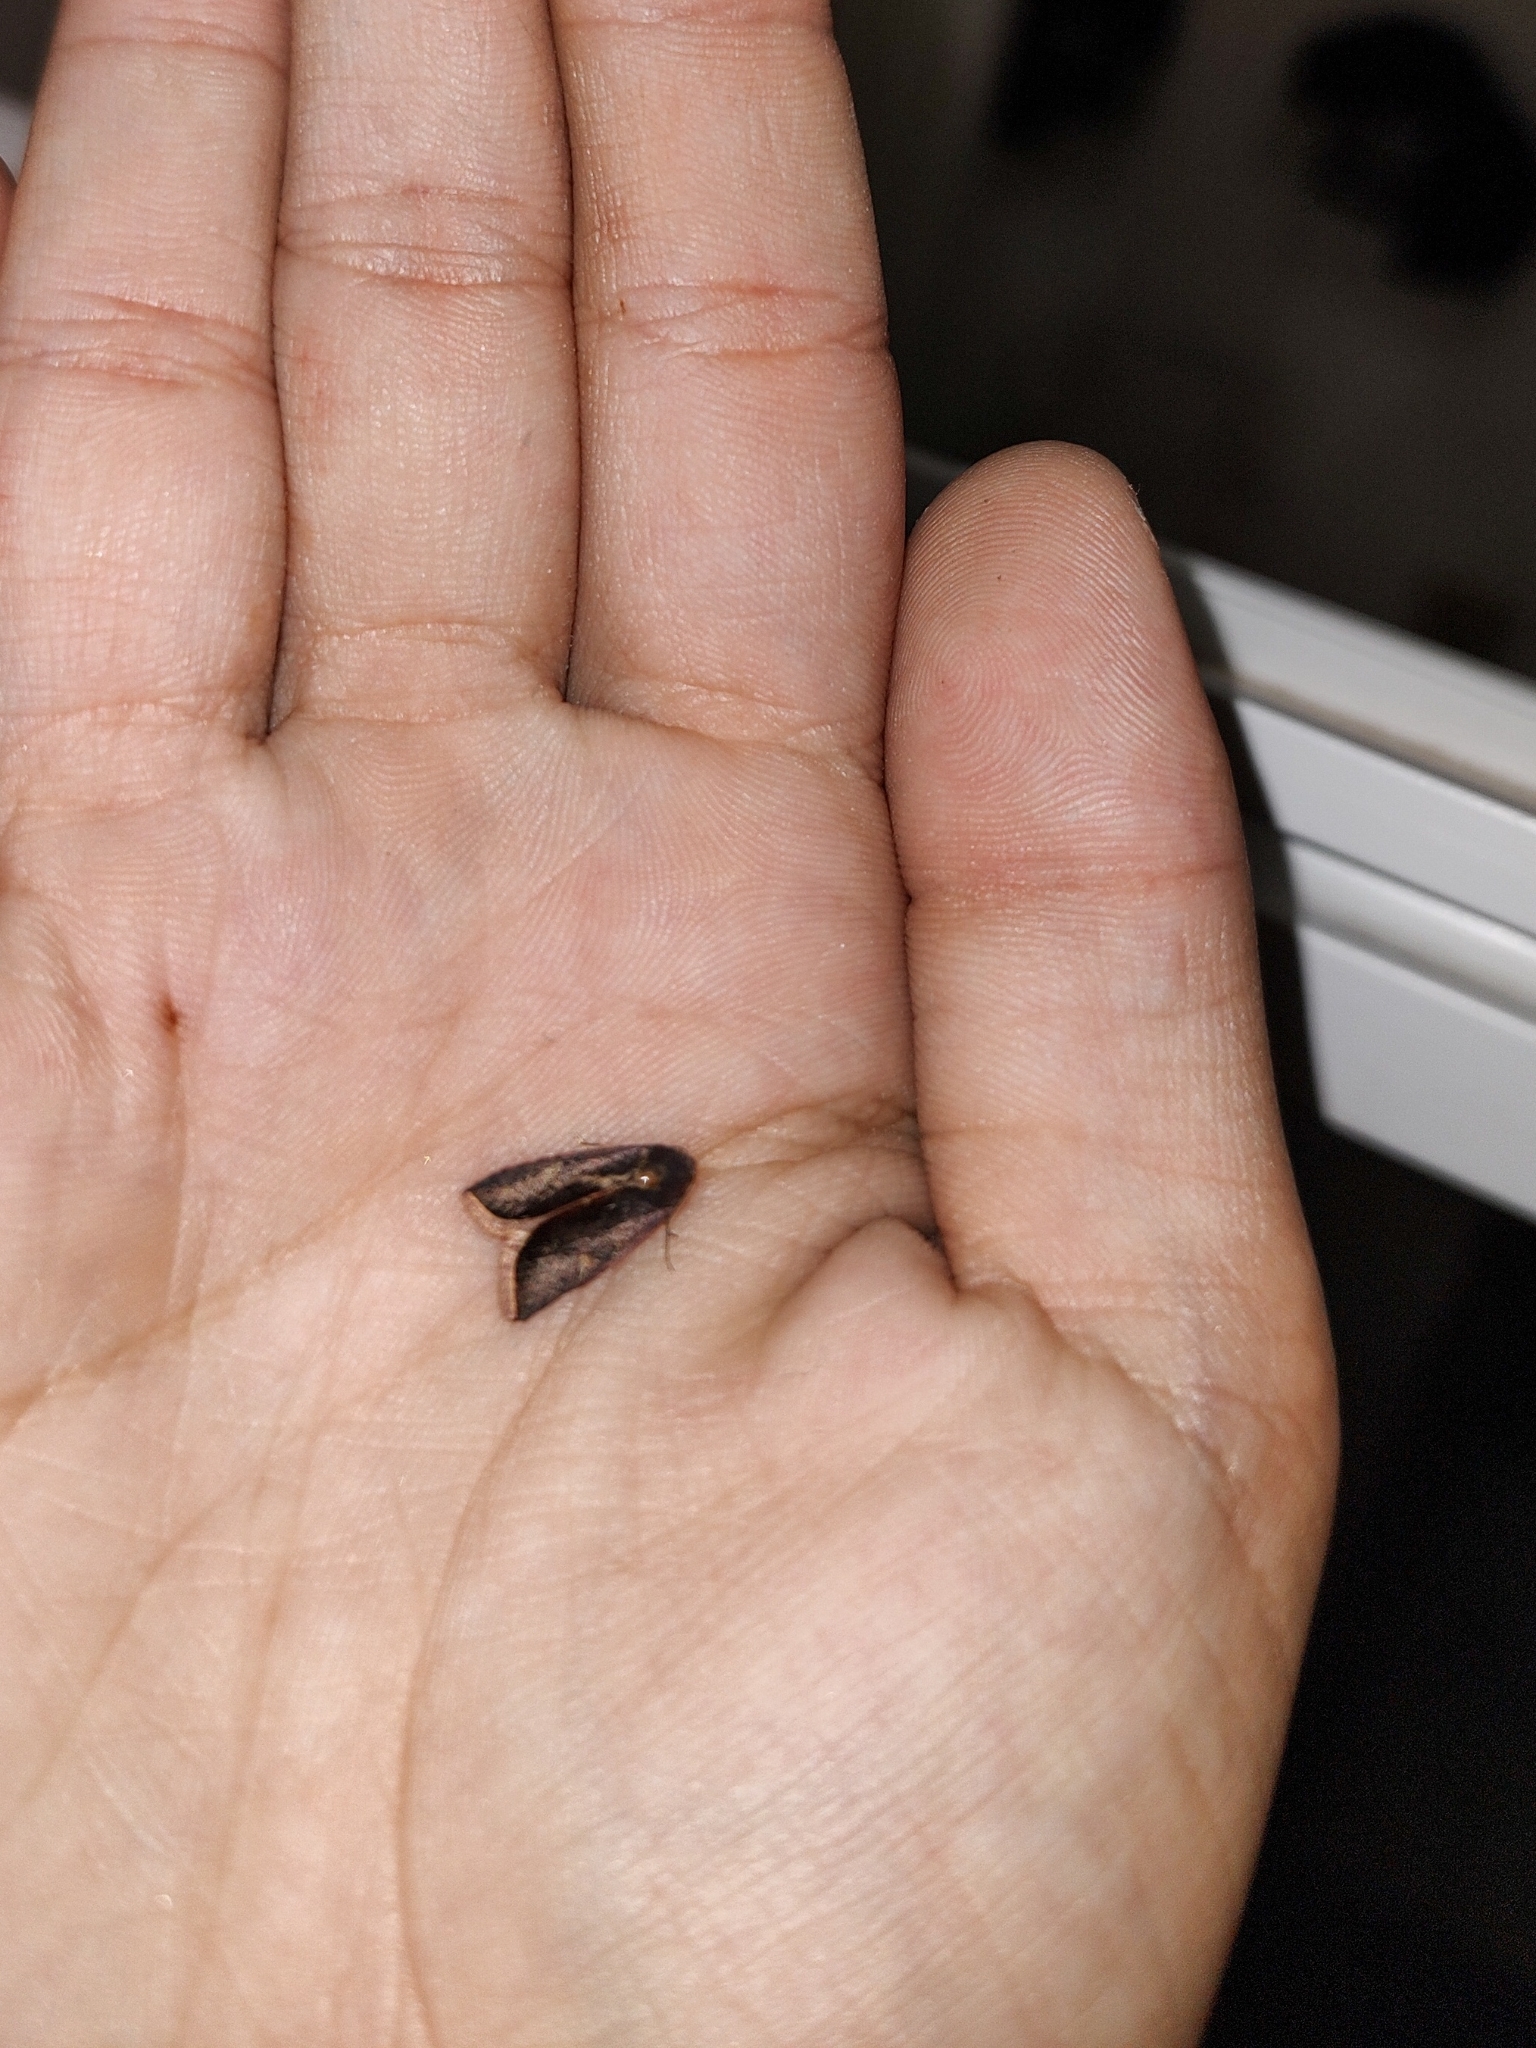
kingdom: Animalia
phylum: Arthropoda
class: Insecta
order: Lepidoptera
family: Noctuidae
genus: Micrathetis
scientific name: Micrathetis canifimbria
